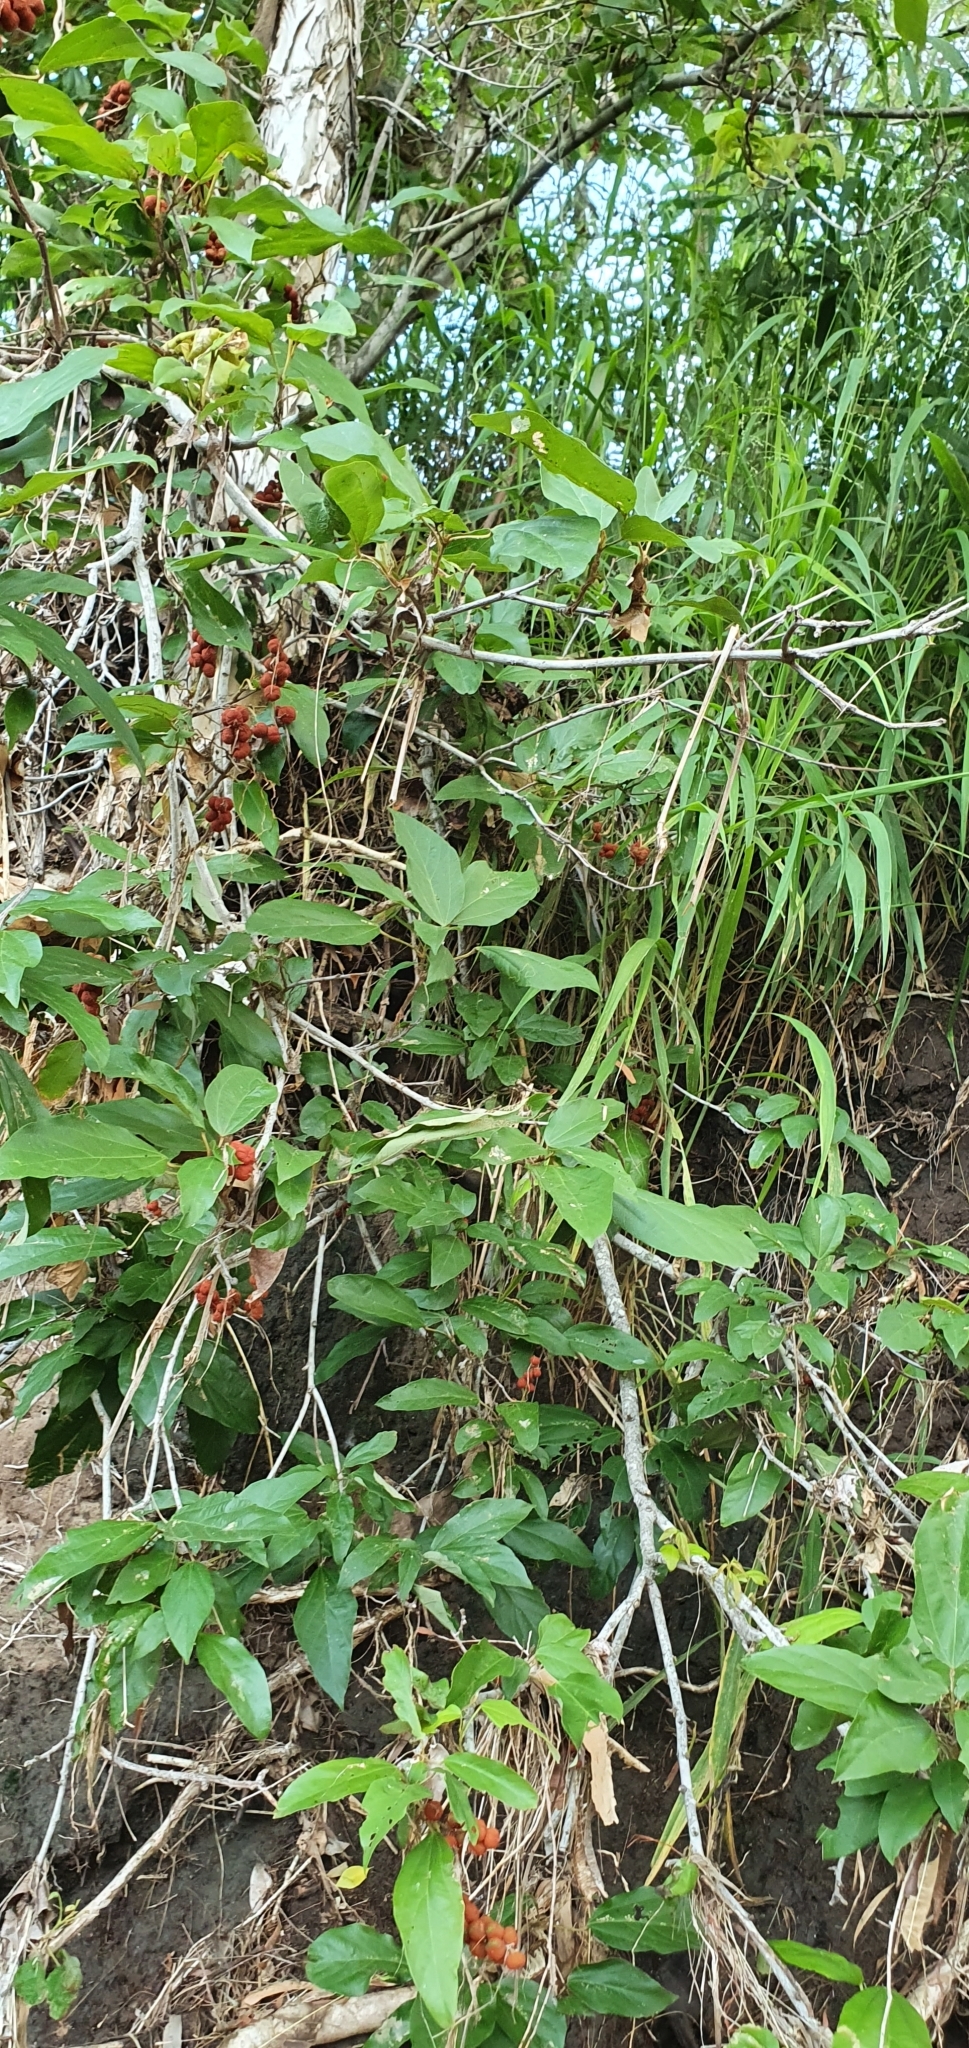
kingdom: Plantae
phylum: Tracheophyta
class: Magnoliopsida
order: Malpighiales
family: Euphorbiaceae
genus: Mallotus
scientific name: Mallotus philippensis
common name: Kamala tree
